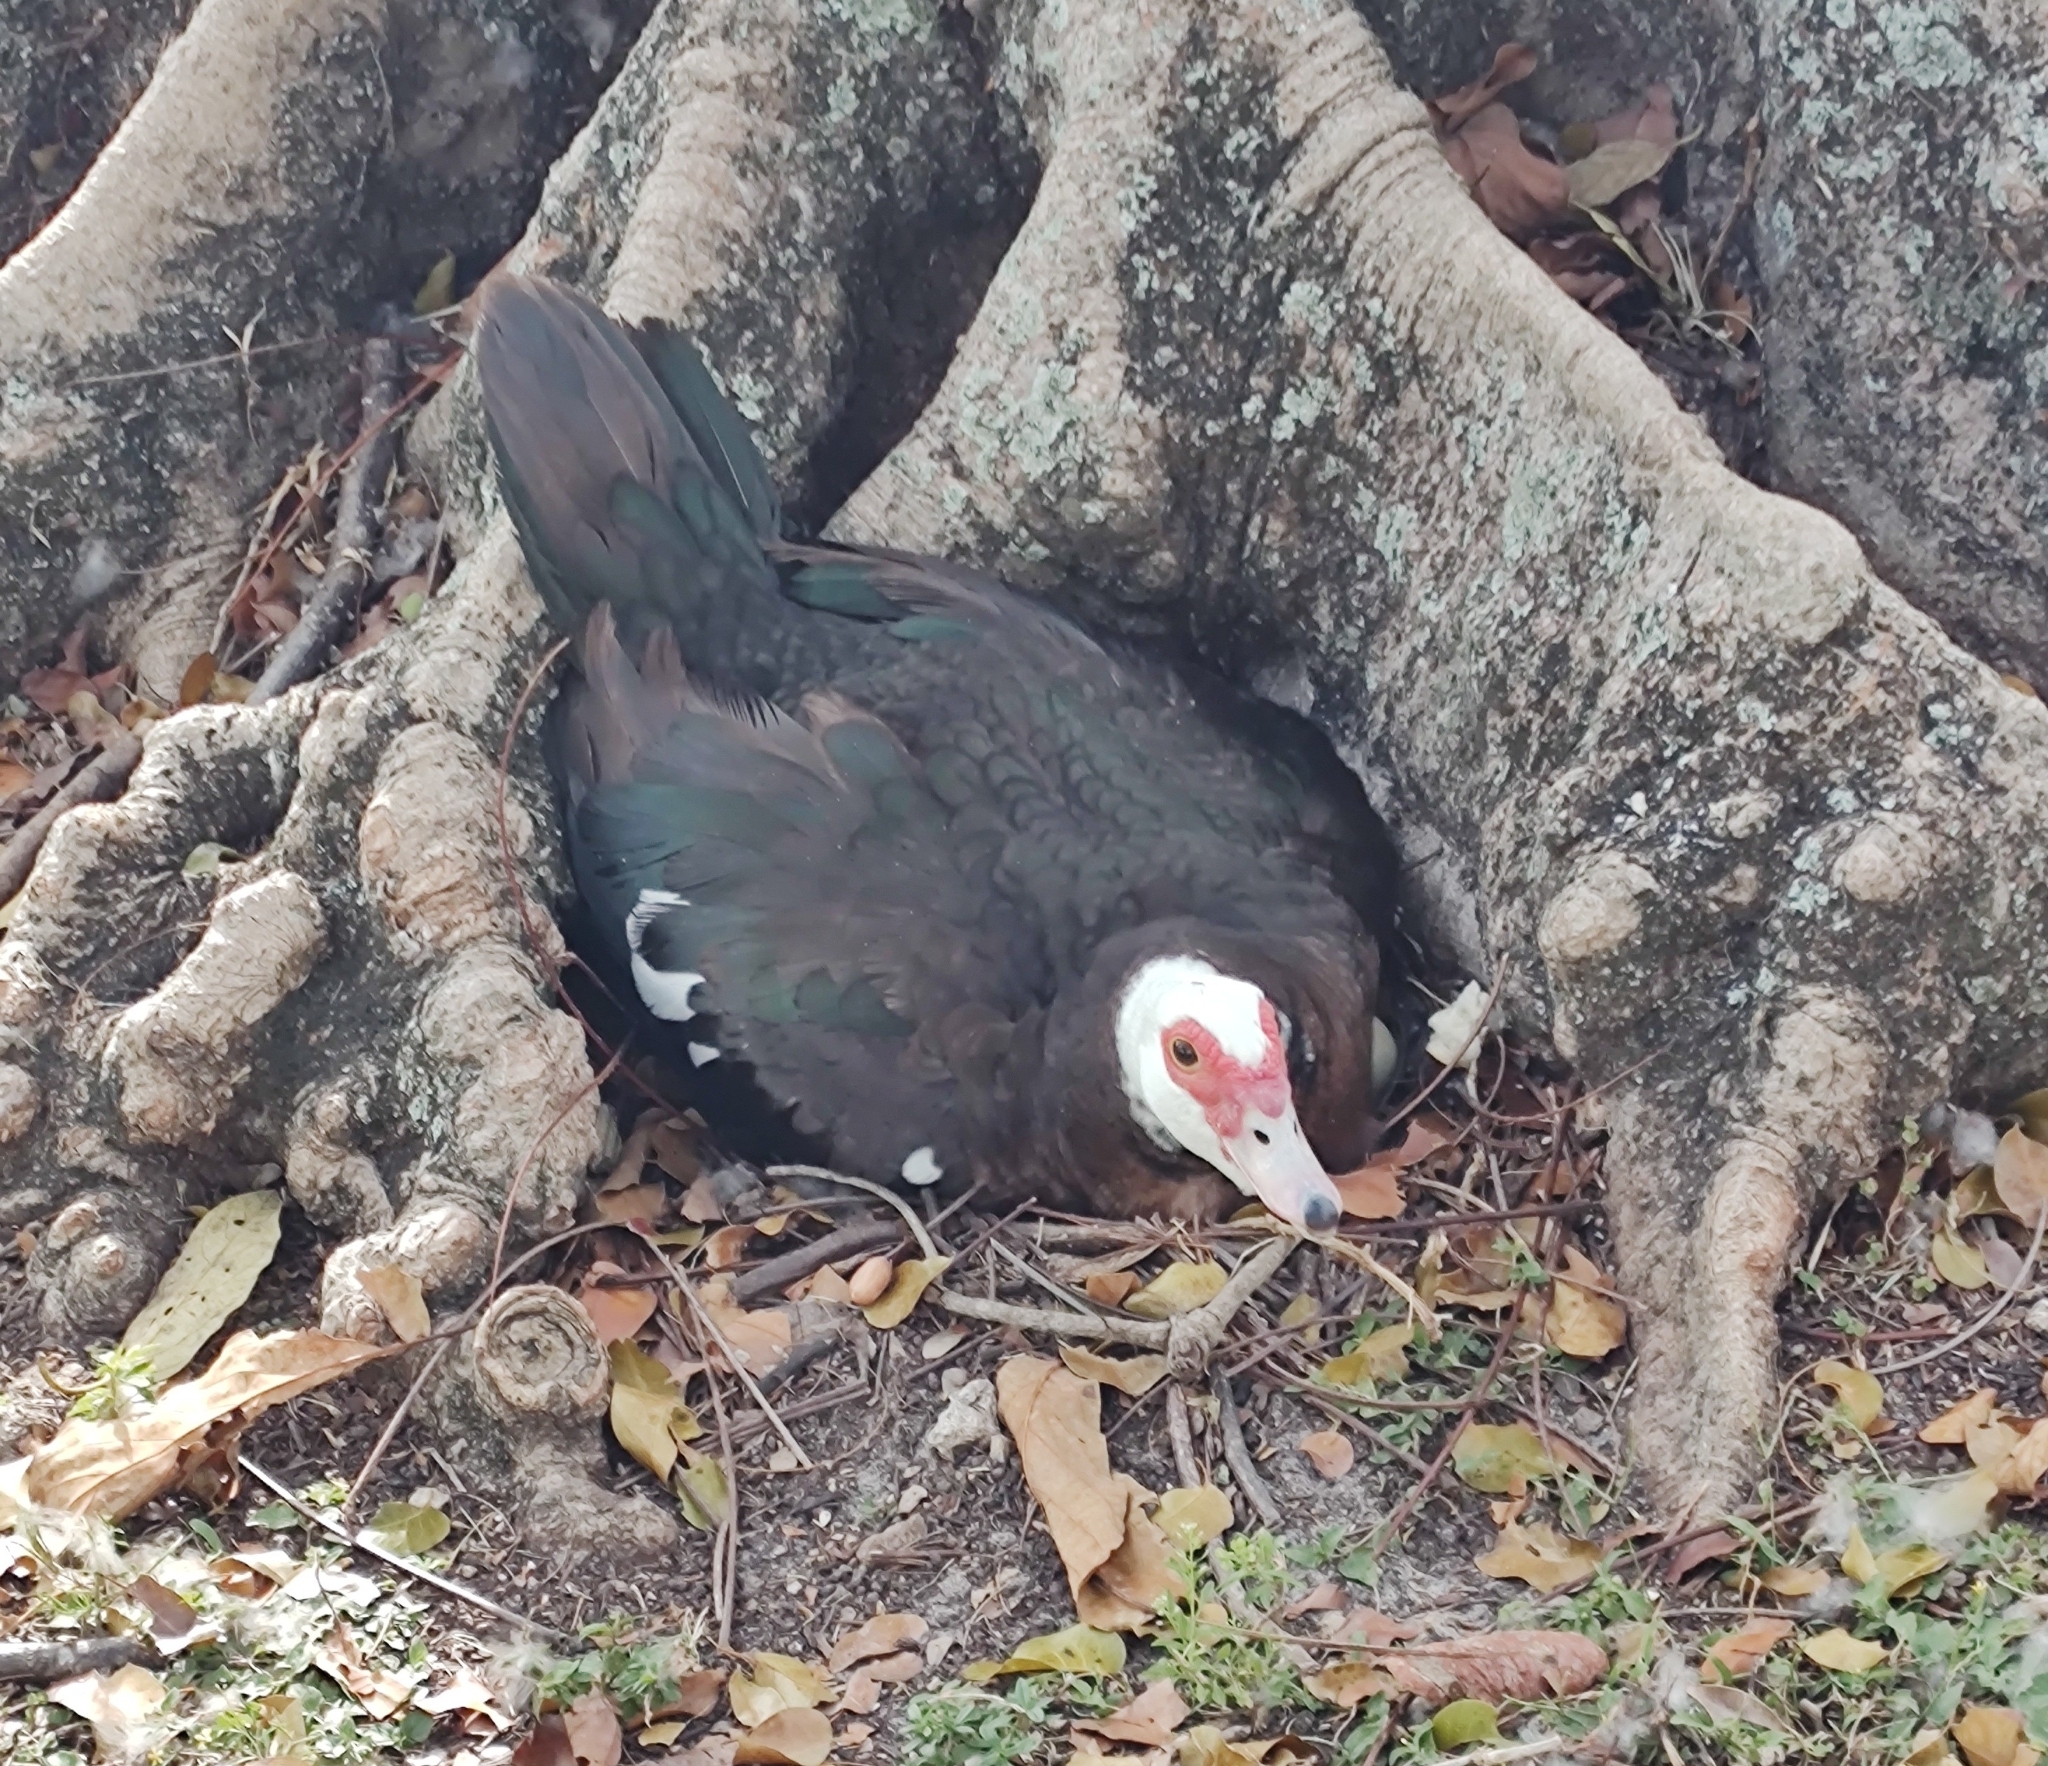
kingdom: Animalia
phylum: Chordata
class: Aves
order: Anseriformes
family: Anatidae
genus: Cairina
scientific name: Cairina moschata
